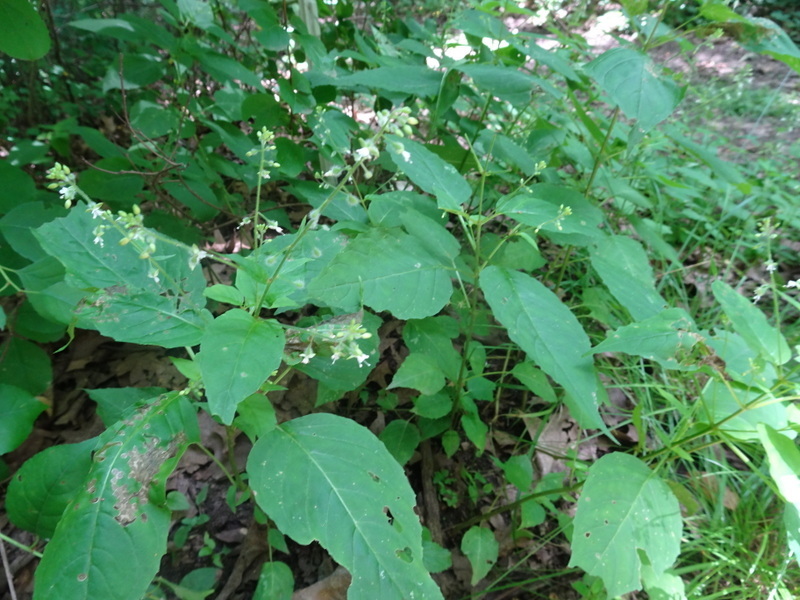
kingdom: Plantae
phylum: Tracheophyta
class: Magnoliopsida
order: Myrtales
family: Onagraceae
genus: Circaea
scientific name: Circaea canadensis
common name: Broad-leaved enchanter's nightshade
